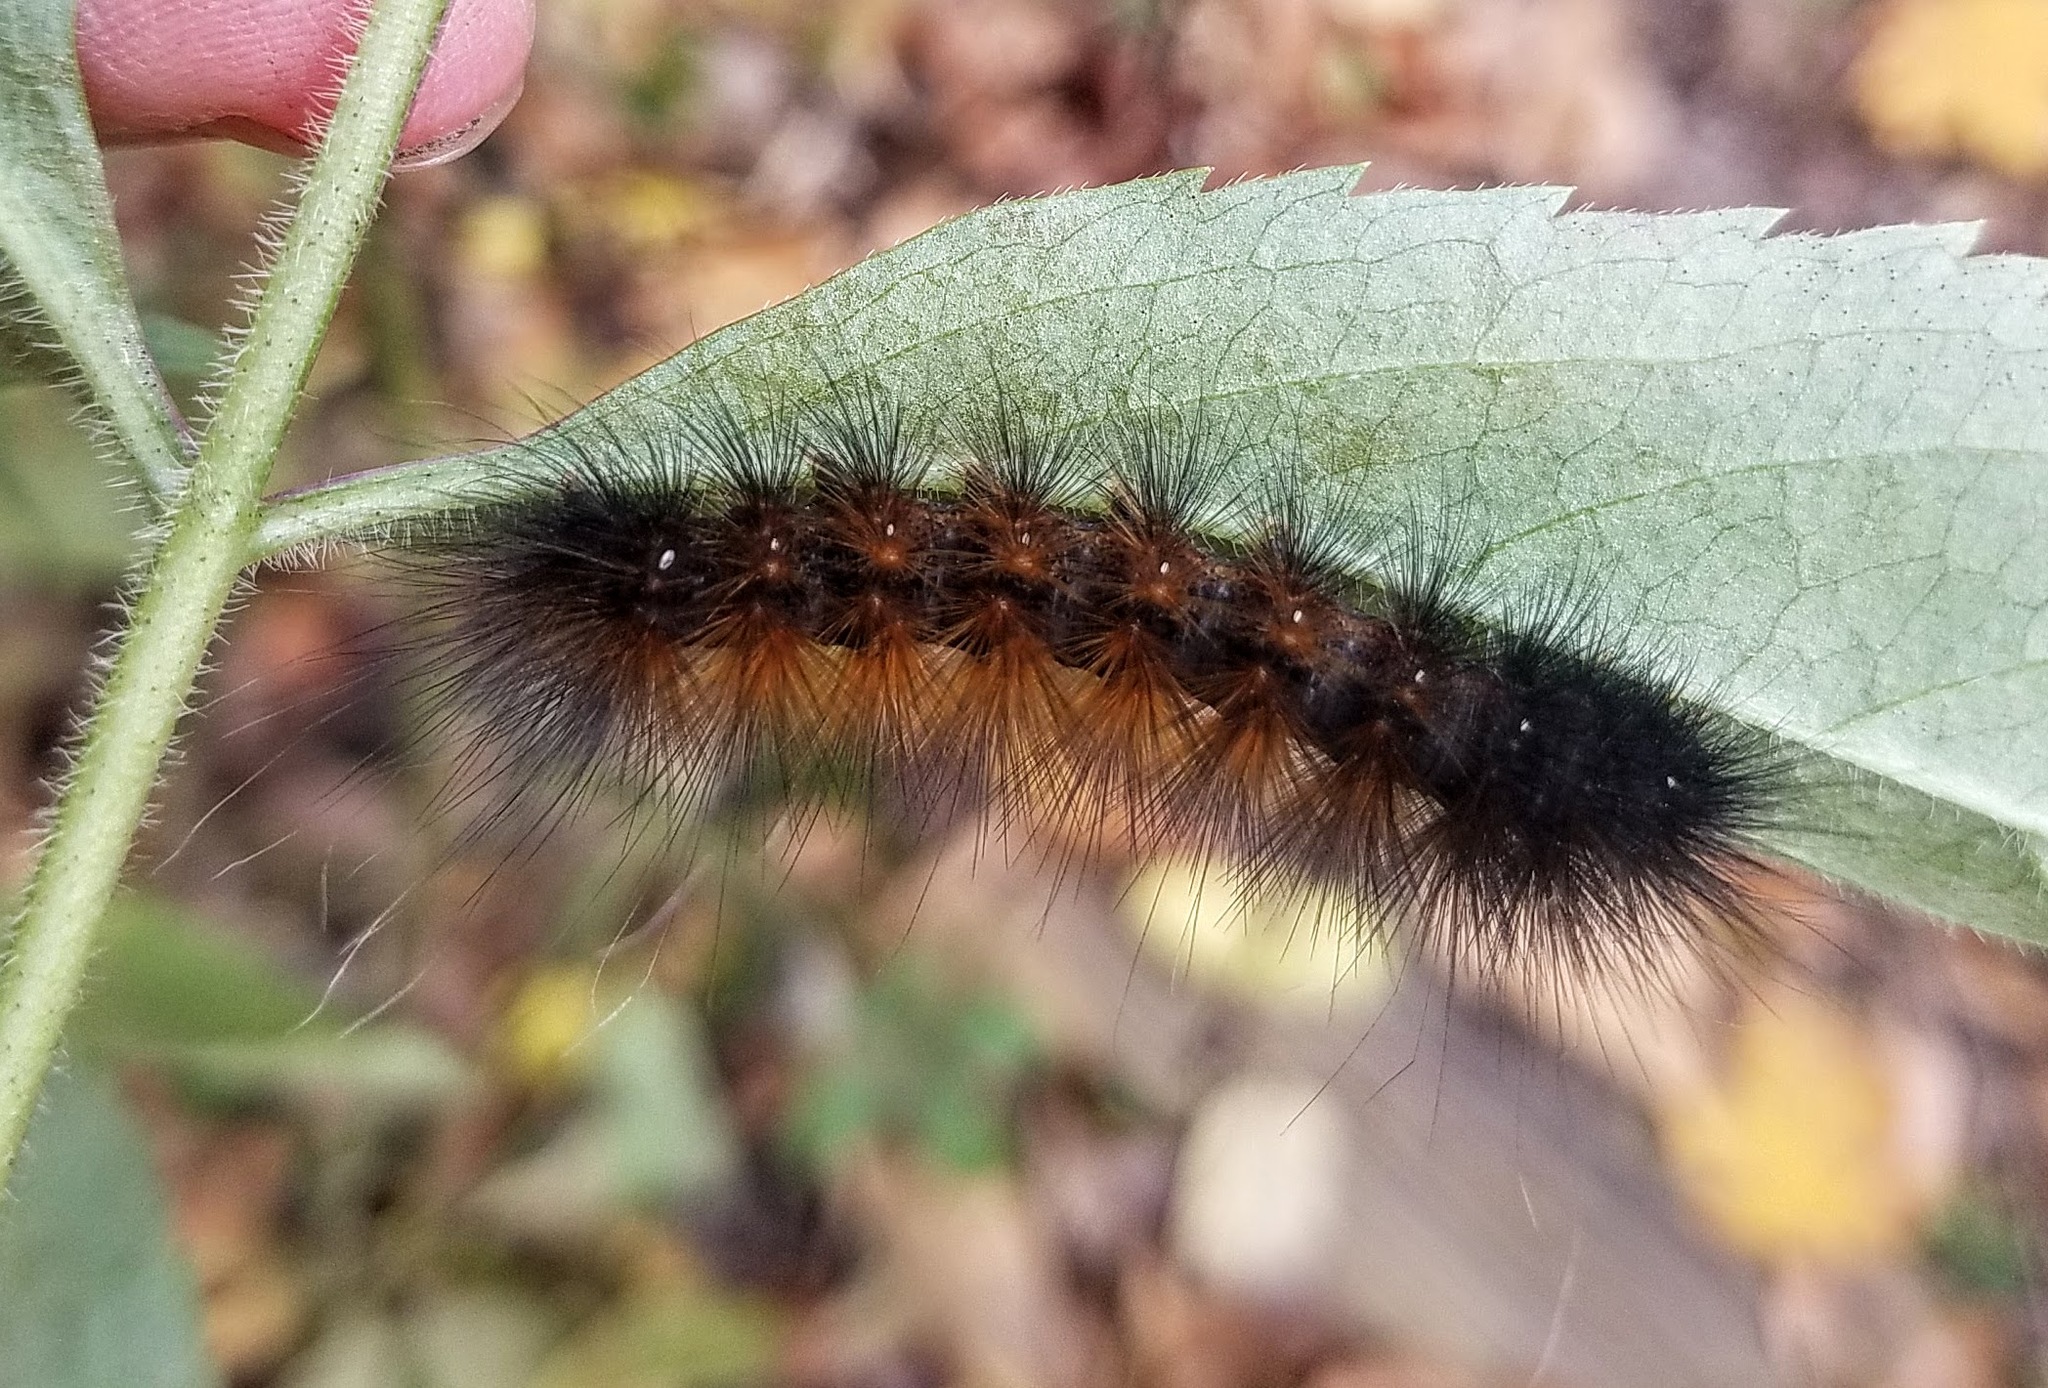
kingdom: Animalia
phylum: Arthropoda
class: Insecta
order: Lepidoptera
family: Erebidae
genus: Spilosoma
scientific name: Spilosoma virginica
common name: Virginia tiger moth
